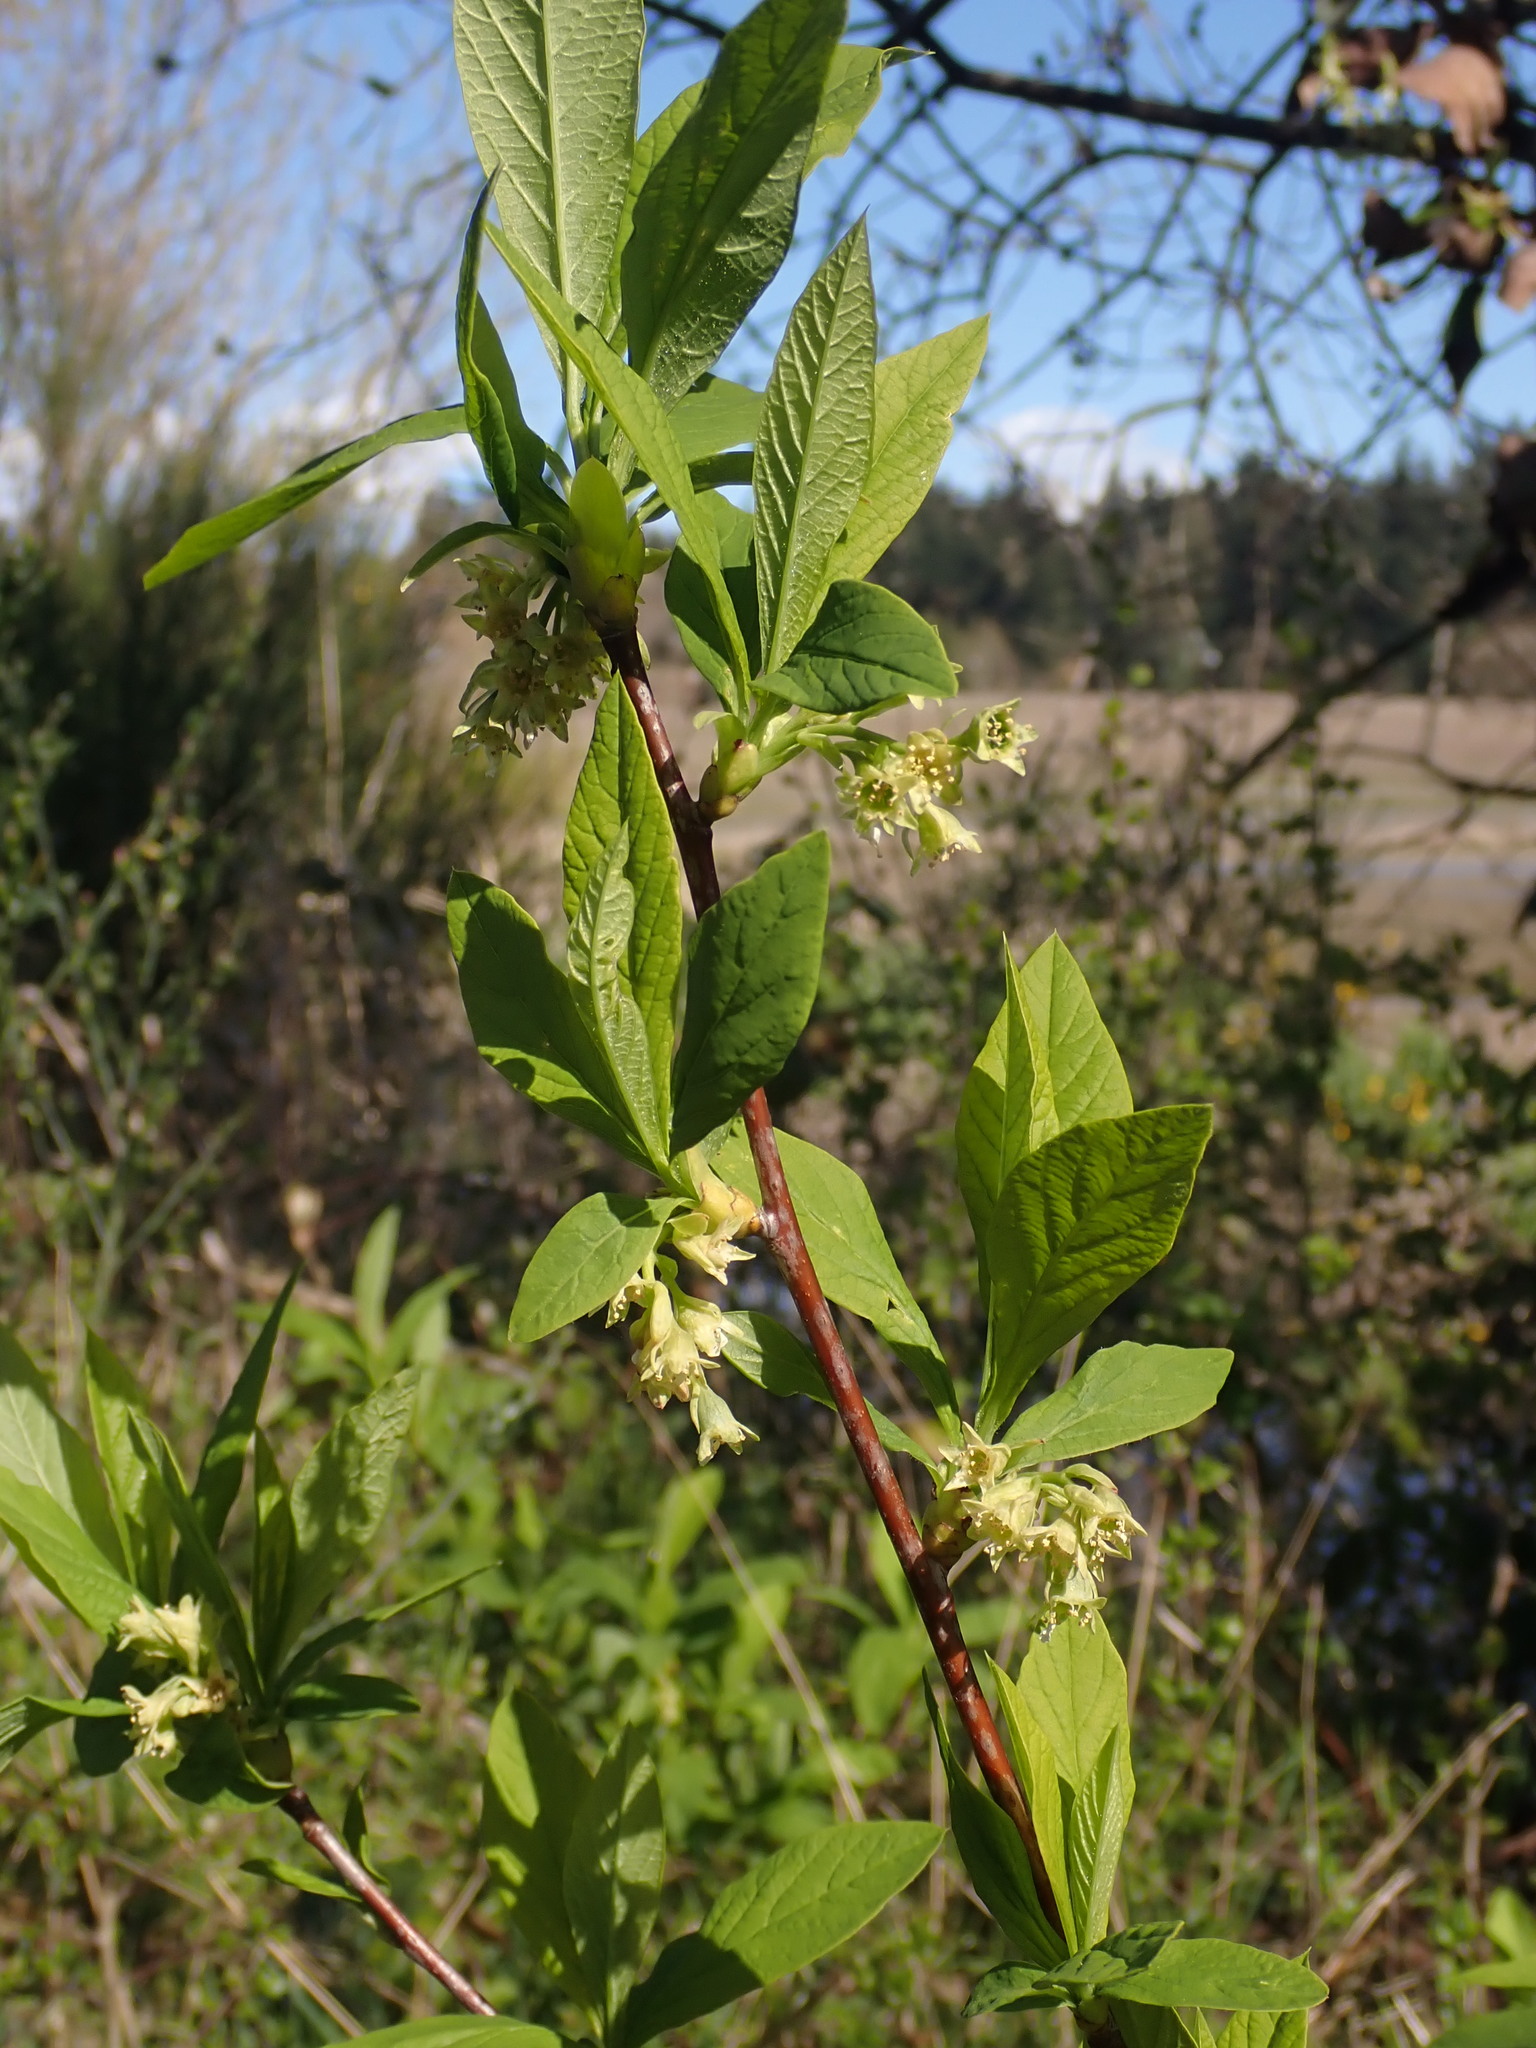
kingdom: Plantae
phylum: Tracheophyta
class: Magnoliopsida
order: Rosales
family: Rosaceae
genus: Oemleria
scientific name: Oemleria cerasiformis
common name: Osoberry
